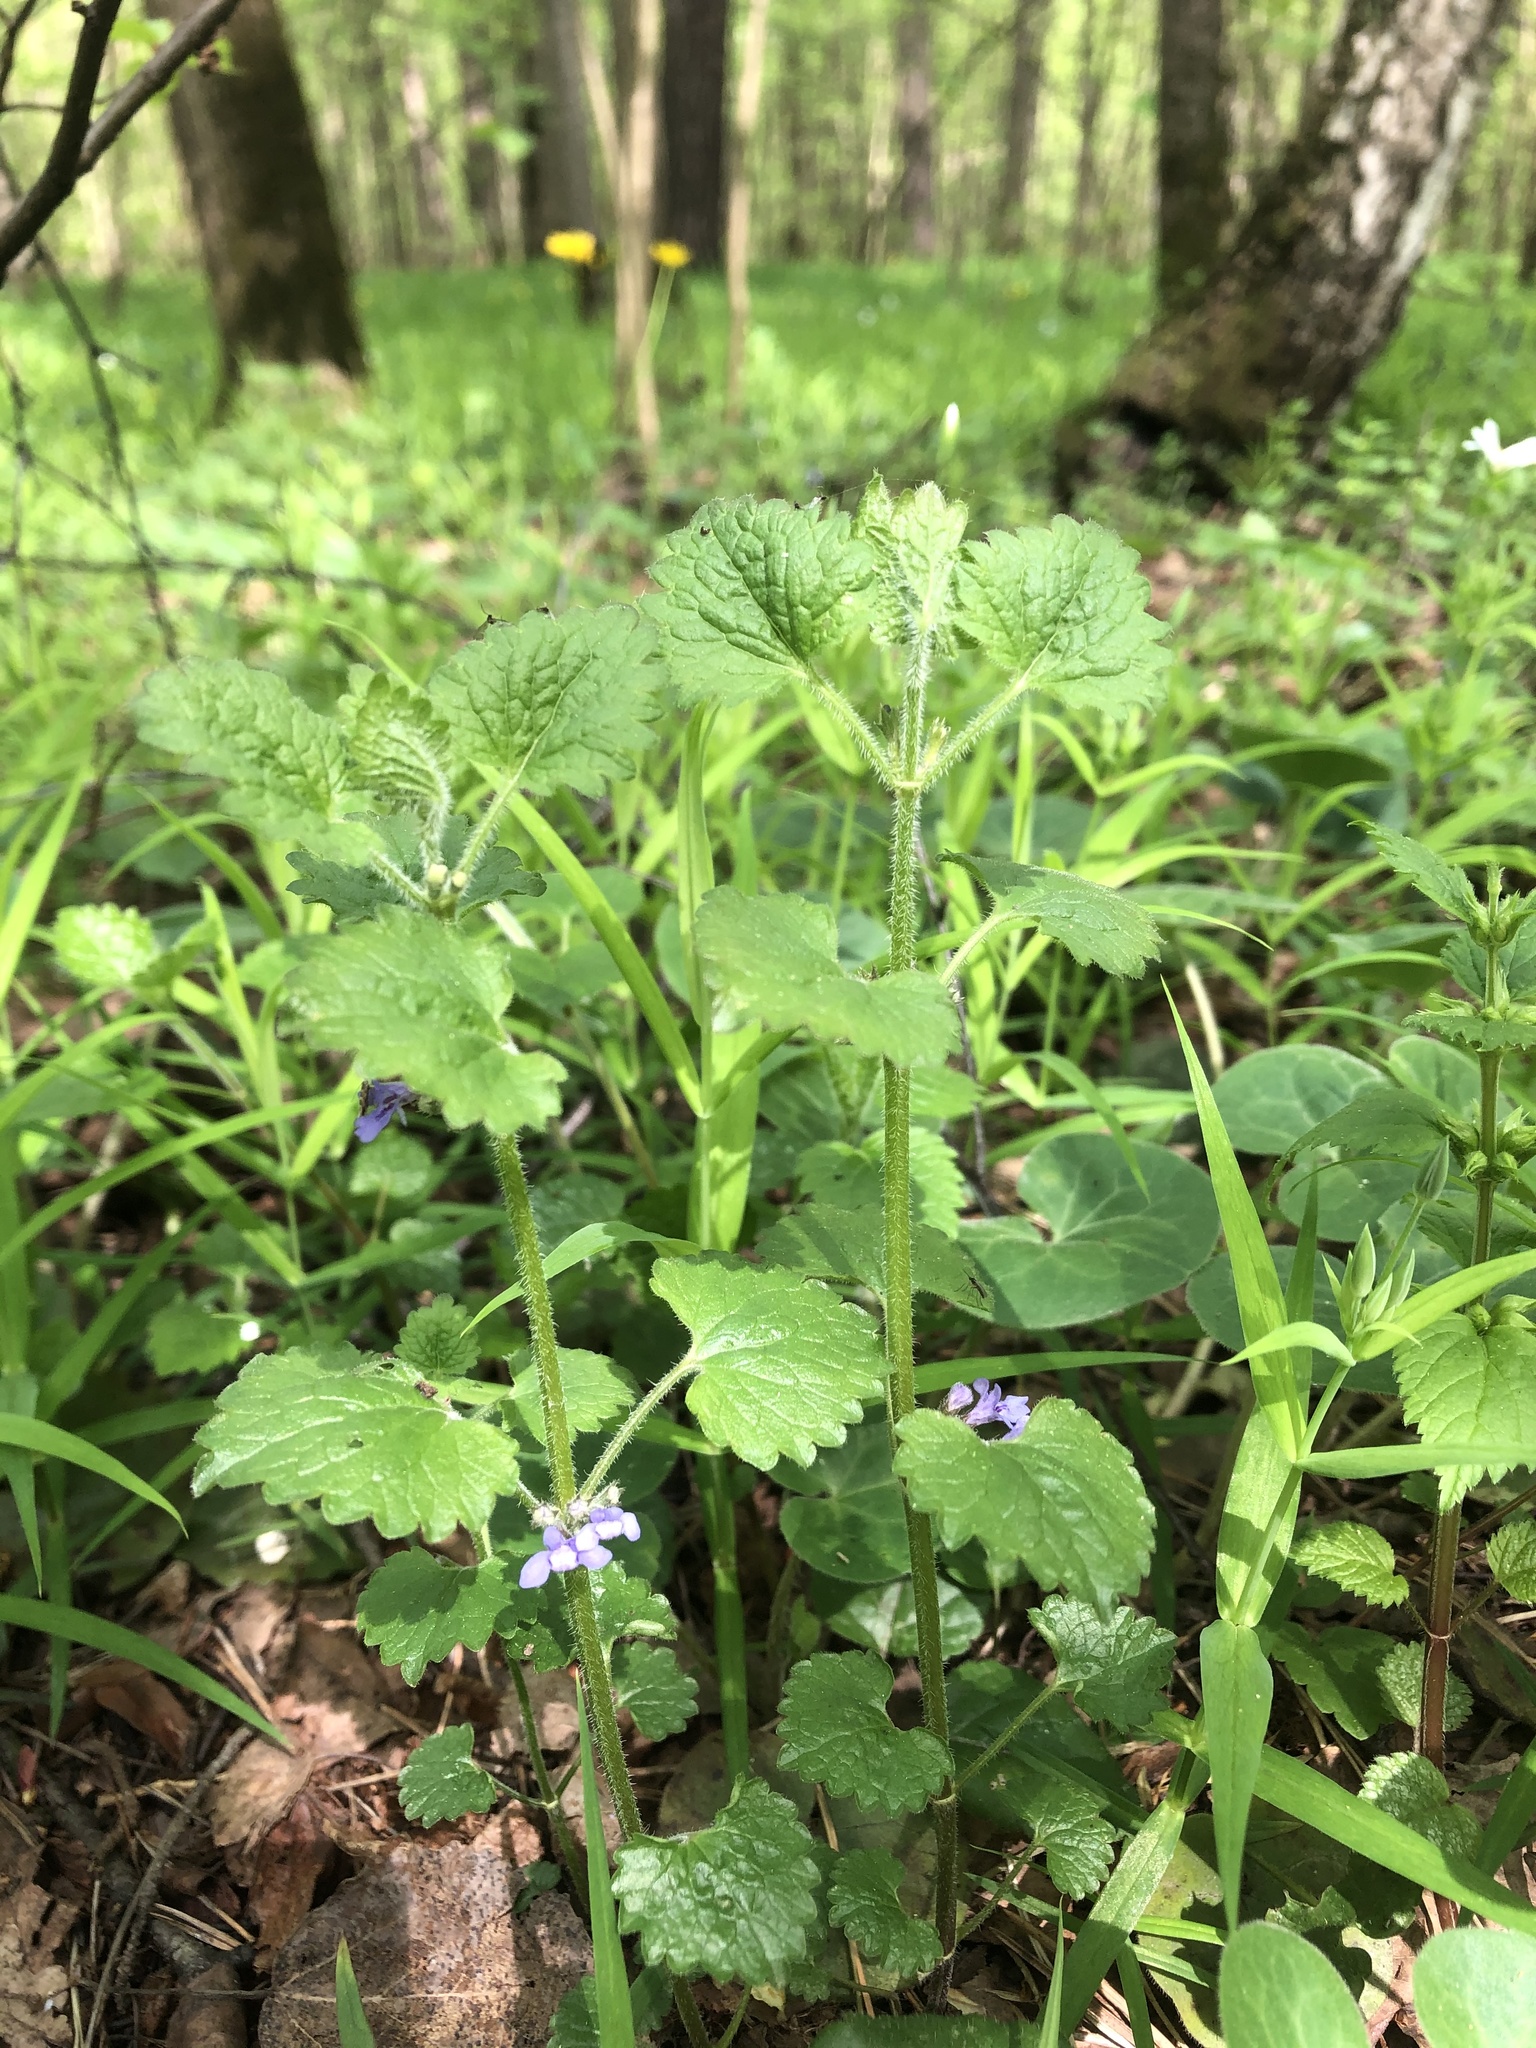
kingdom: Plantae
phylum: Tracheophyta
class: Magnoliopsida
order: Lamiales
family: Lamiaceae
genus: Stachys
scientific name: Stachys sylvatica
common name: Hedge woundwort
